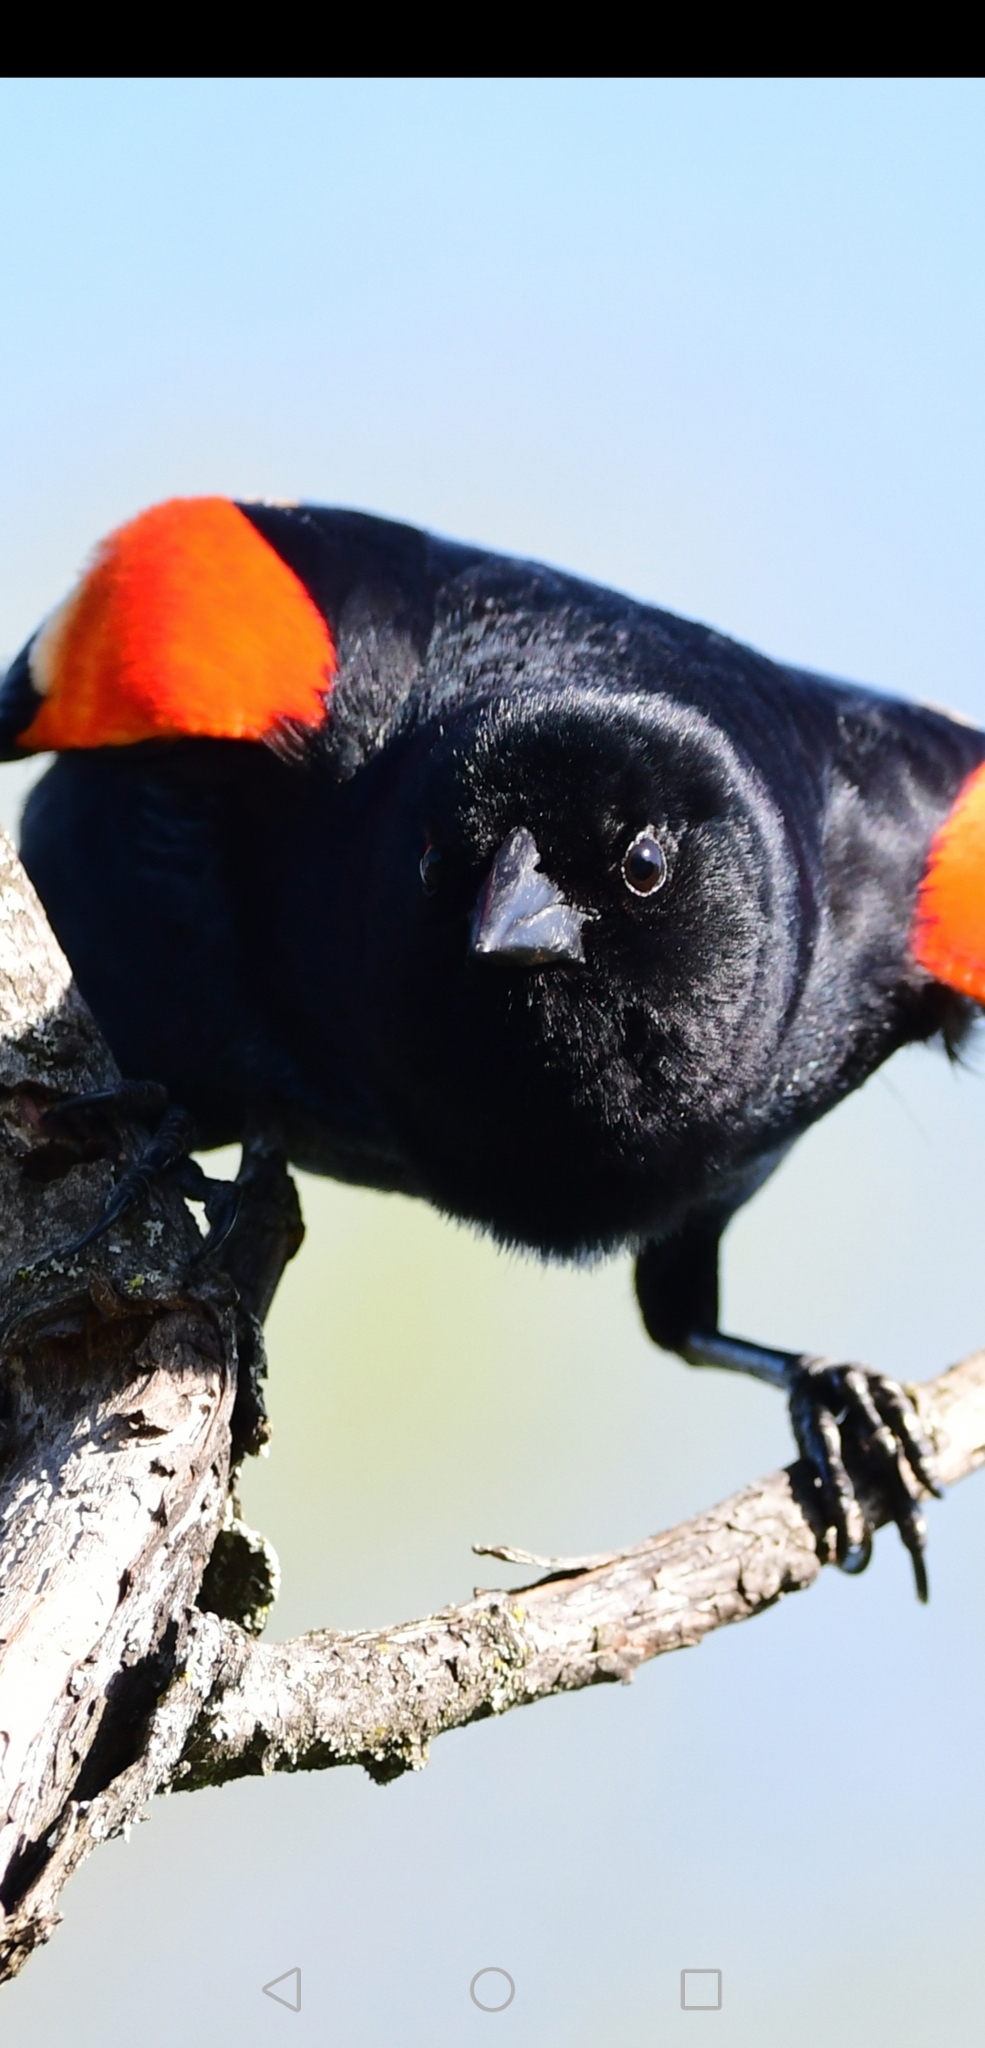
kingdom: Animalia
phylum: Chordata
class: Aves
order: Passeriformes
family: Icteridae
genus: Agelaius
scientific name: Agelaius phoeniceus
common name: Red-winged blackbird
